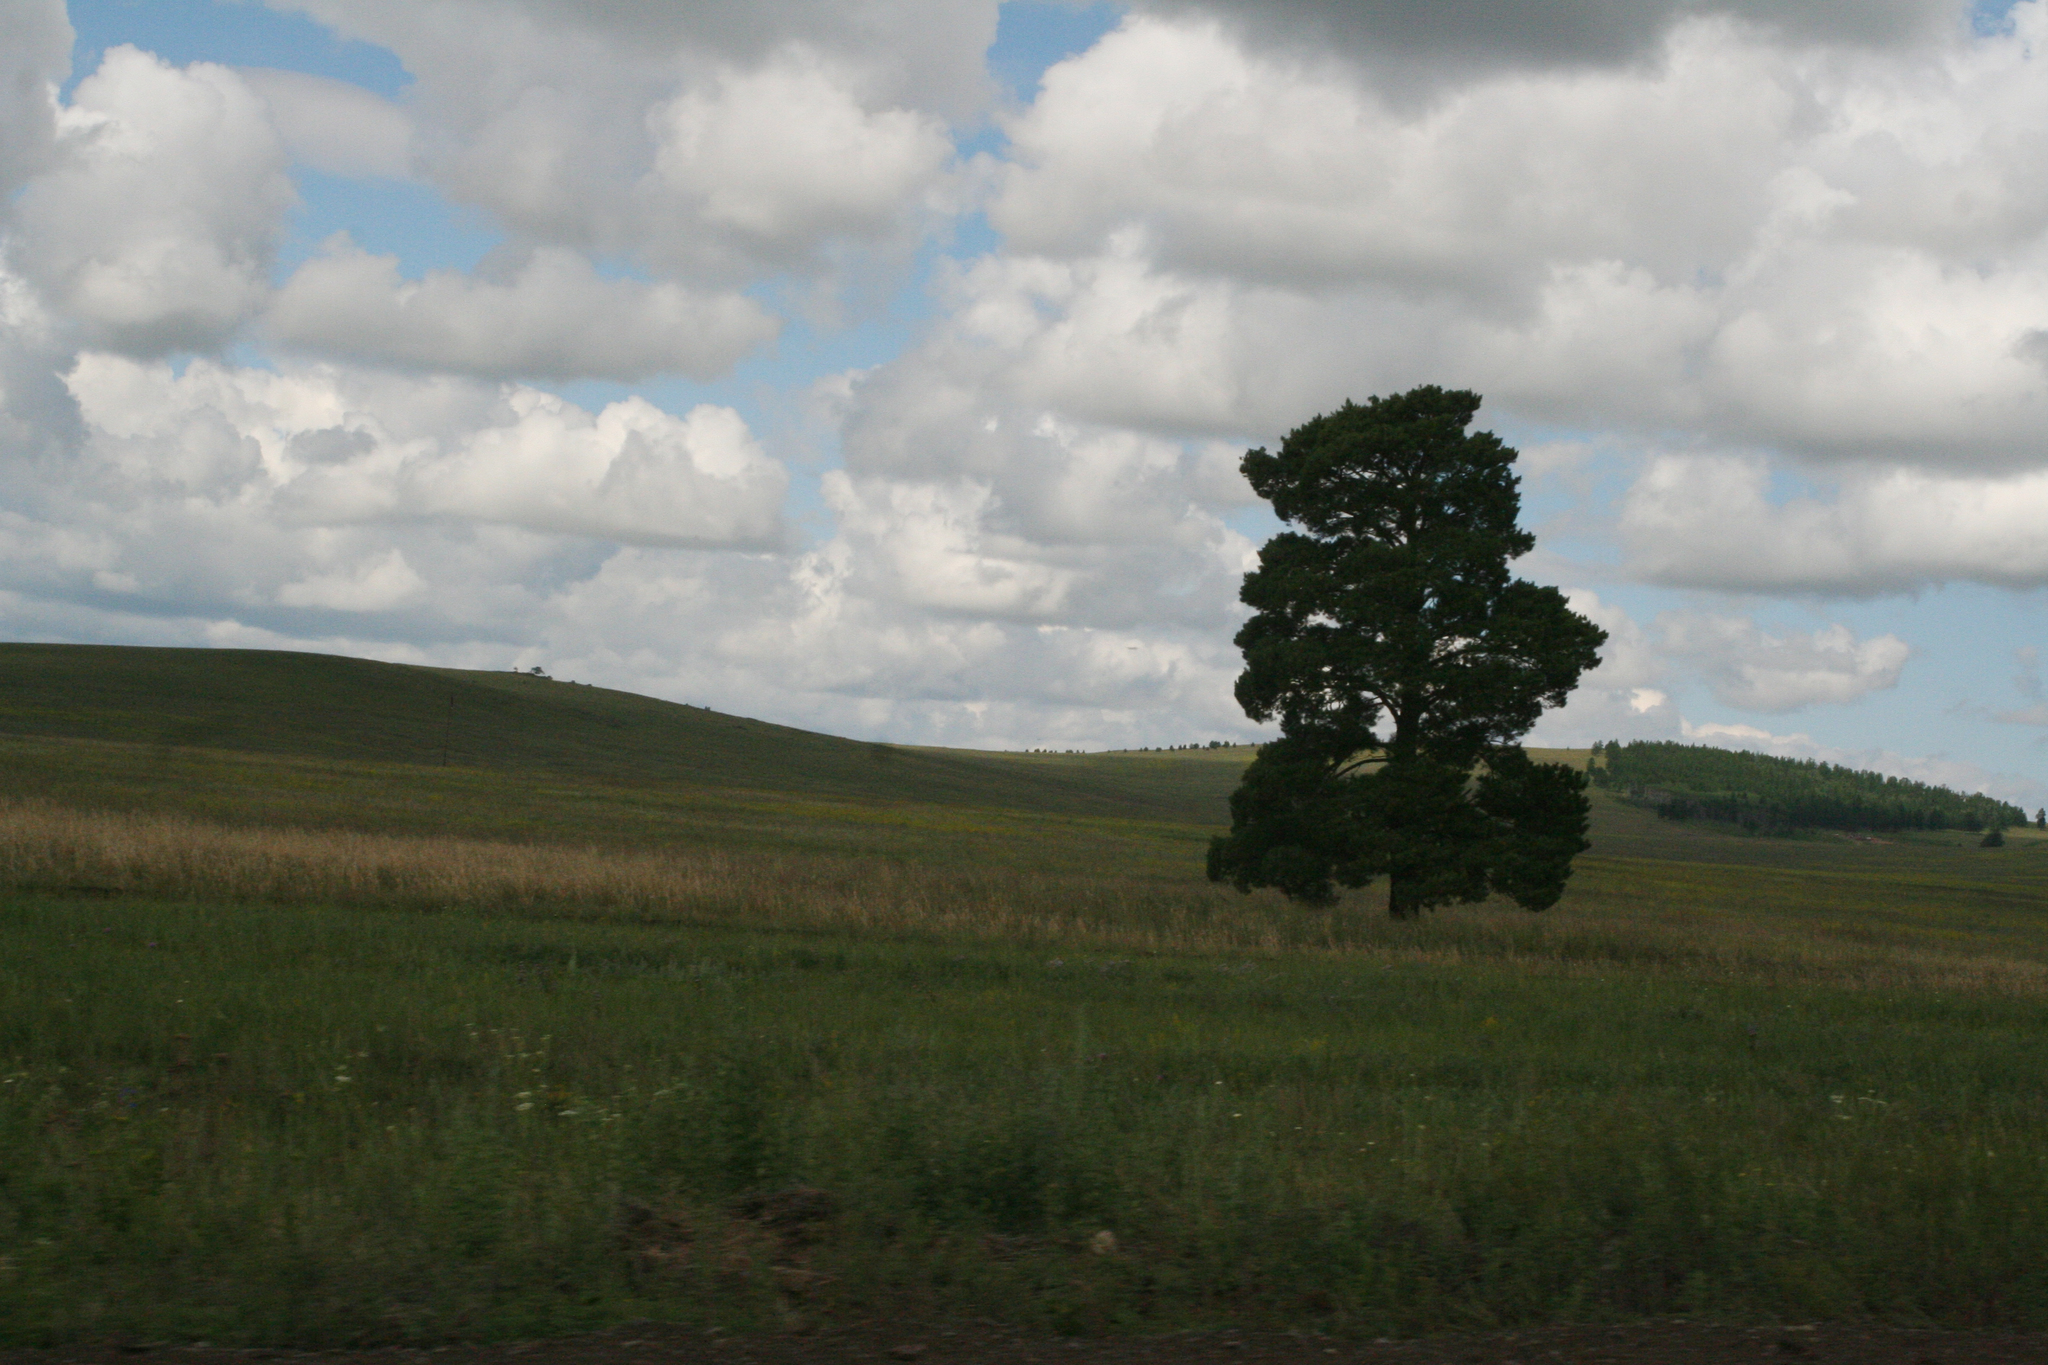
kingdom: Plantae
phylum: Tracheophyta
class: Pinopsida
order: Pinales
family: Pinaceae
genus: Pinus
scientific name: Pinus sylvestris
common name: Scots pine
